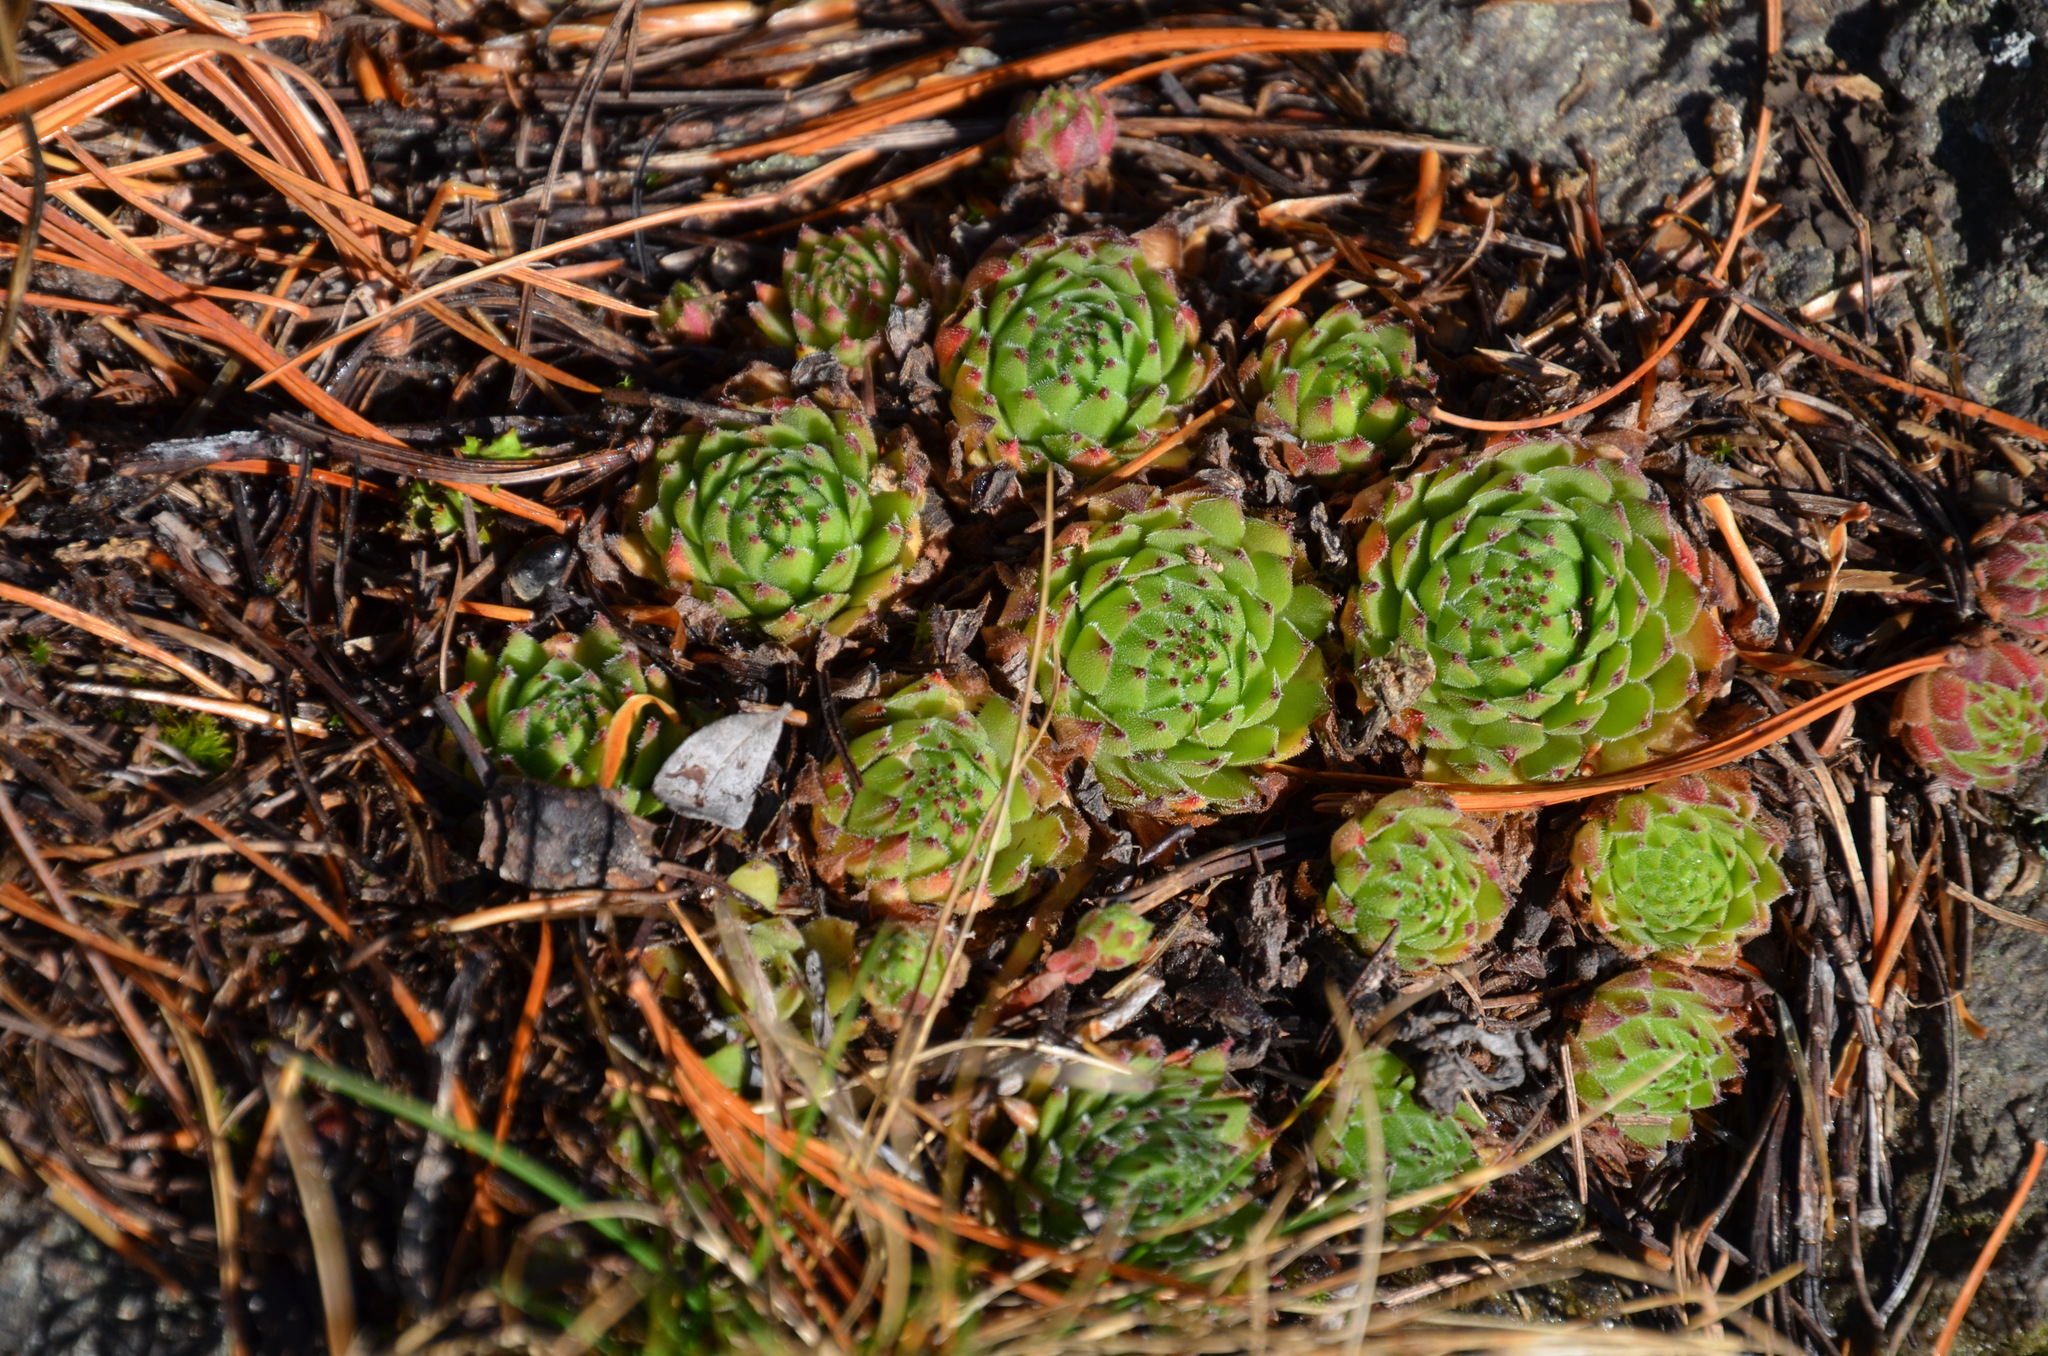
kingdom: Plantae
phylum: Tracheophyta
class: Magnoliopsida
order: Saxifragales
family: Crassulaceae
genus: Sempervivum
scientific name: Sempervivum montanum
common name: Mountain house-leek
